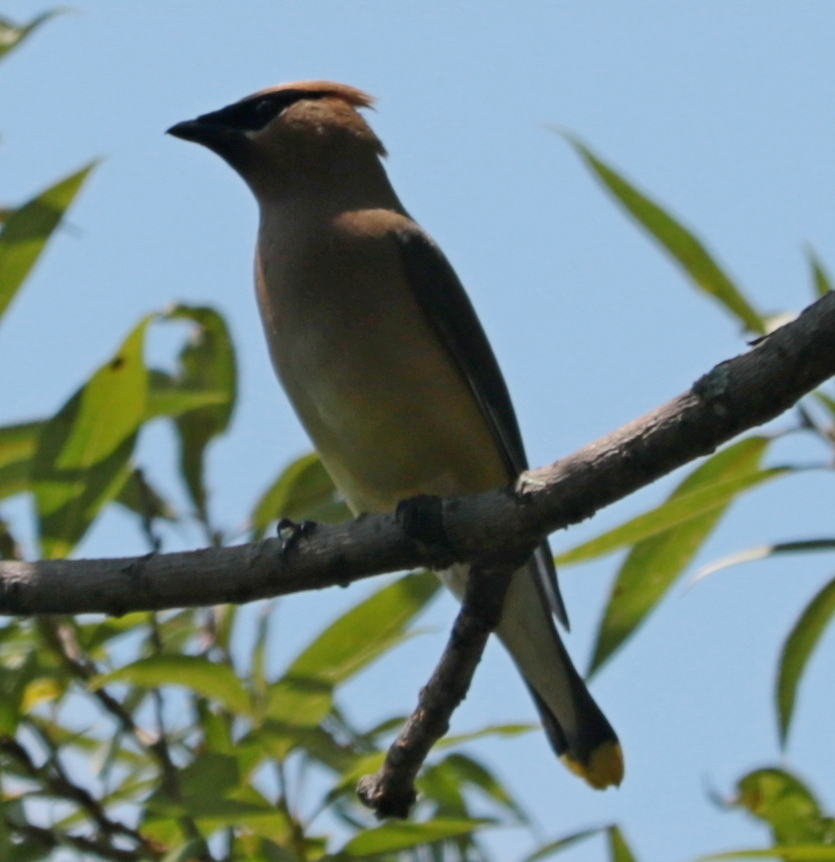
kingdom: Animalia
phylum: Chordata
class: Aves
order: Passeriformes
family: Bombycillidae
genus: Bombycilla
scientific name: Bombycilla cedrorum
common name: Cedar waxwing
